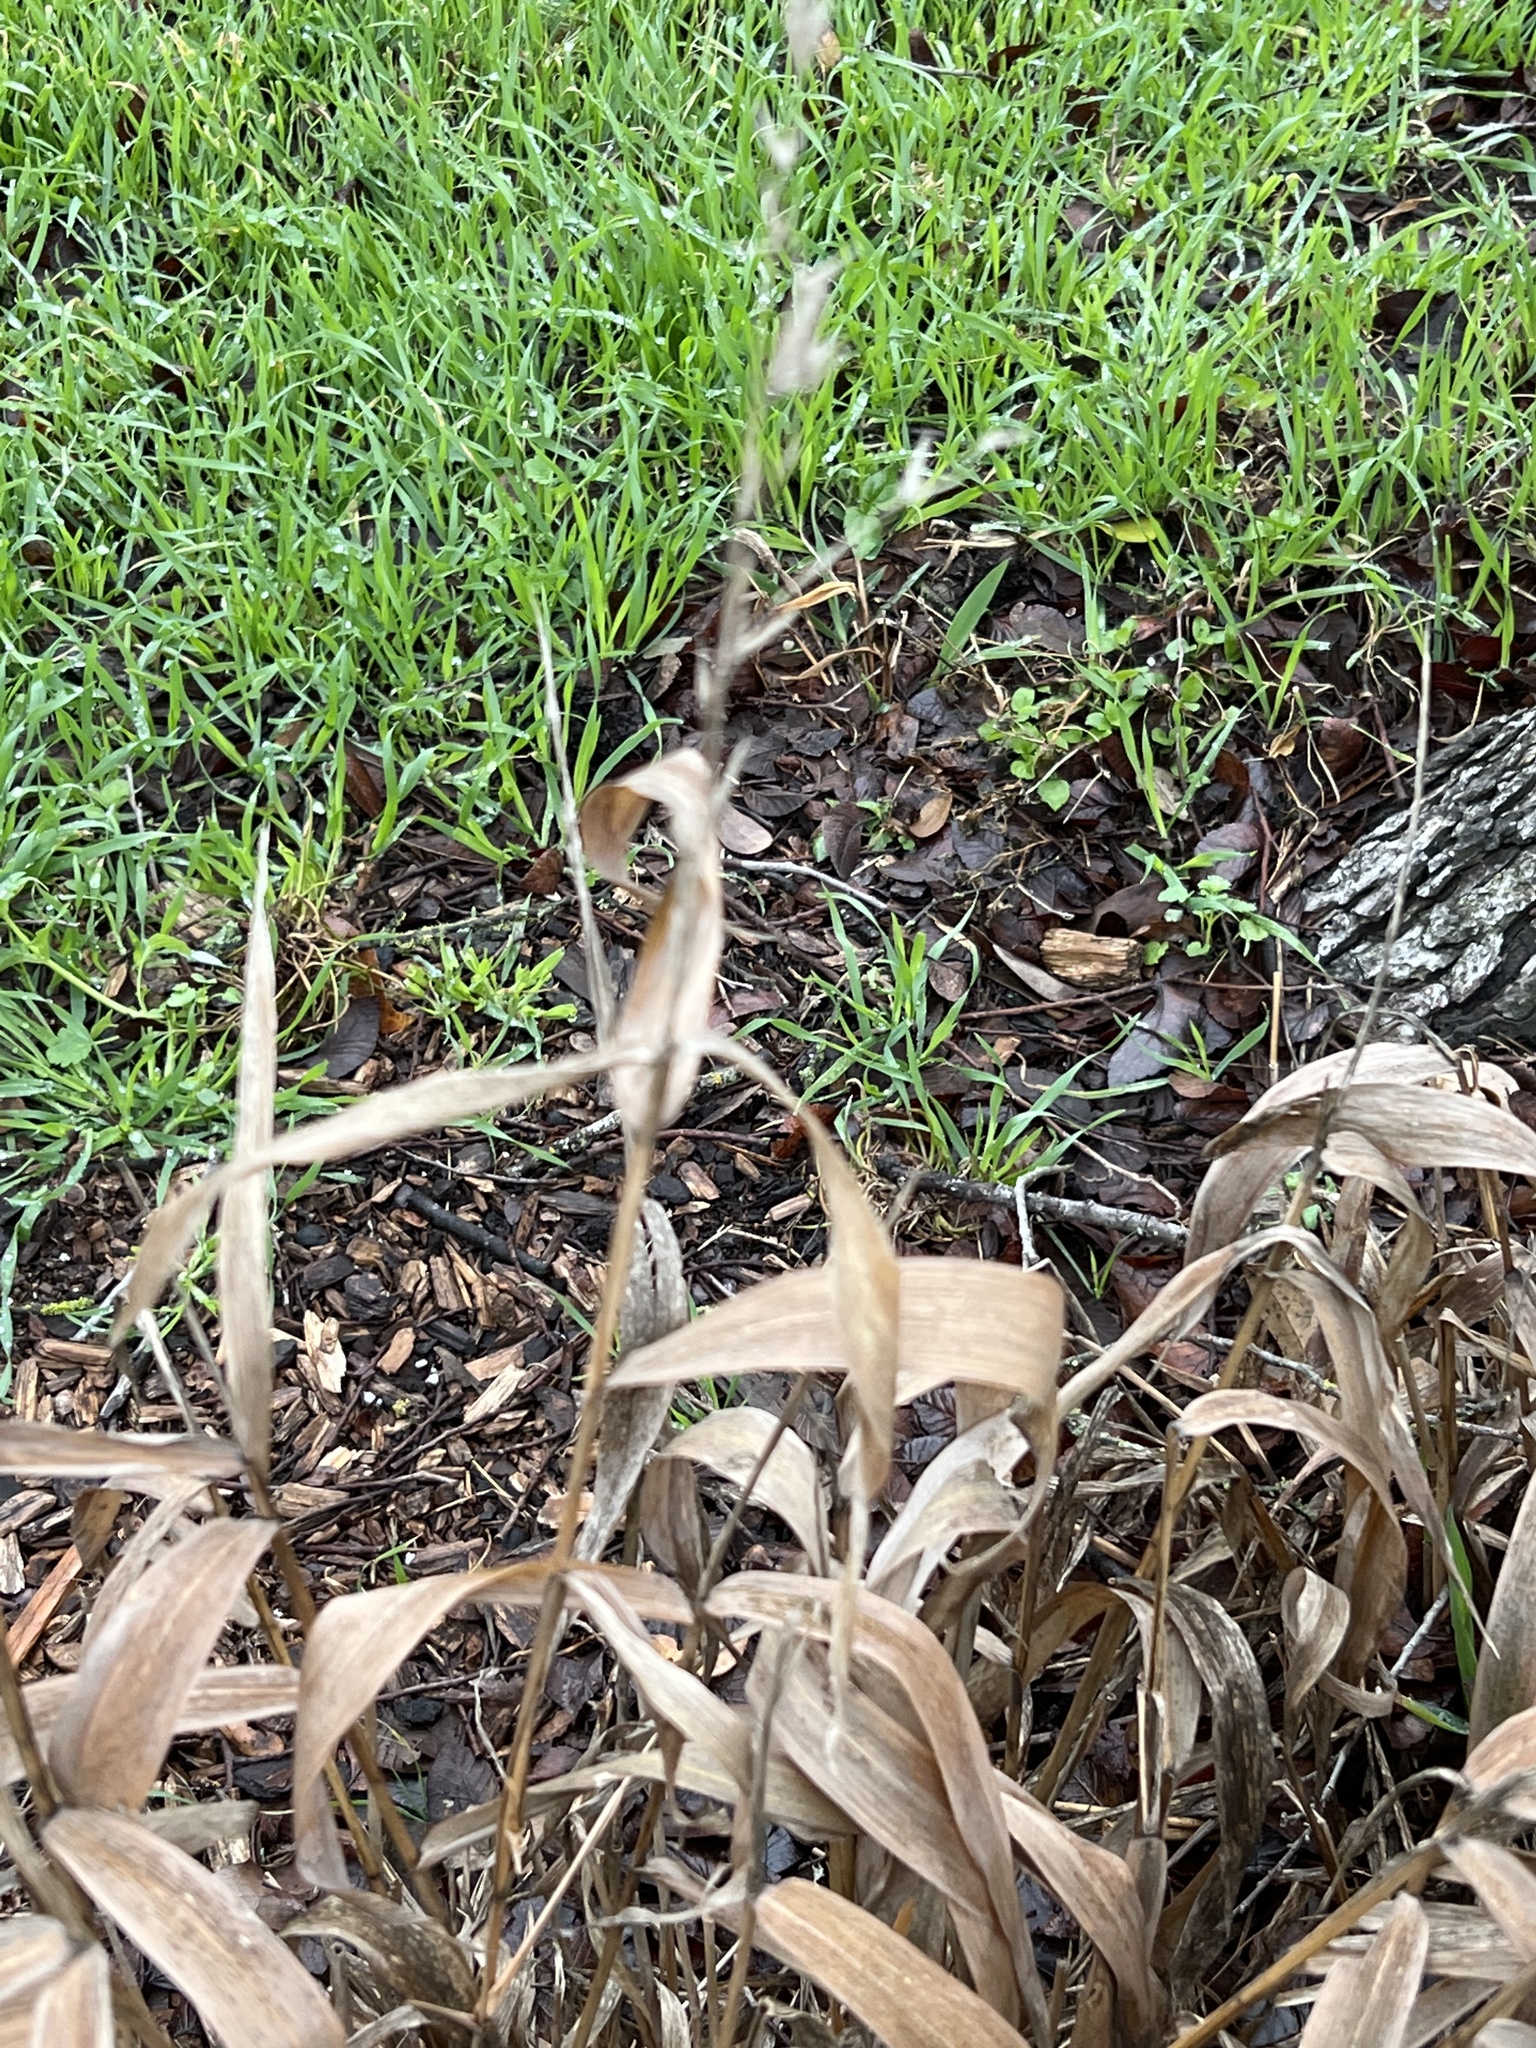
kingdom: Plantae
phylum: Tracheophyta
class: Liliopsida
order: Poales
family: Poaceae
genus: Chasmanthium
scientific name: Chasmanthium latifolium
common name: Broad-leaved chasmanthium
